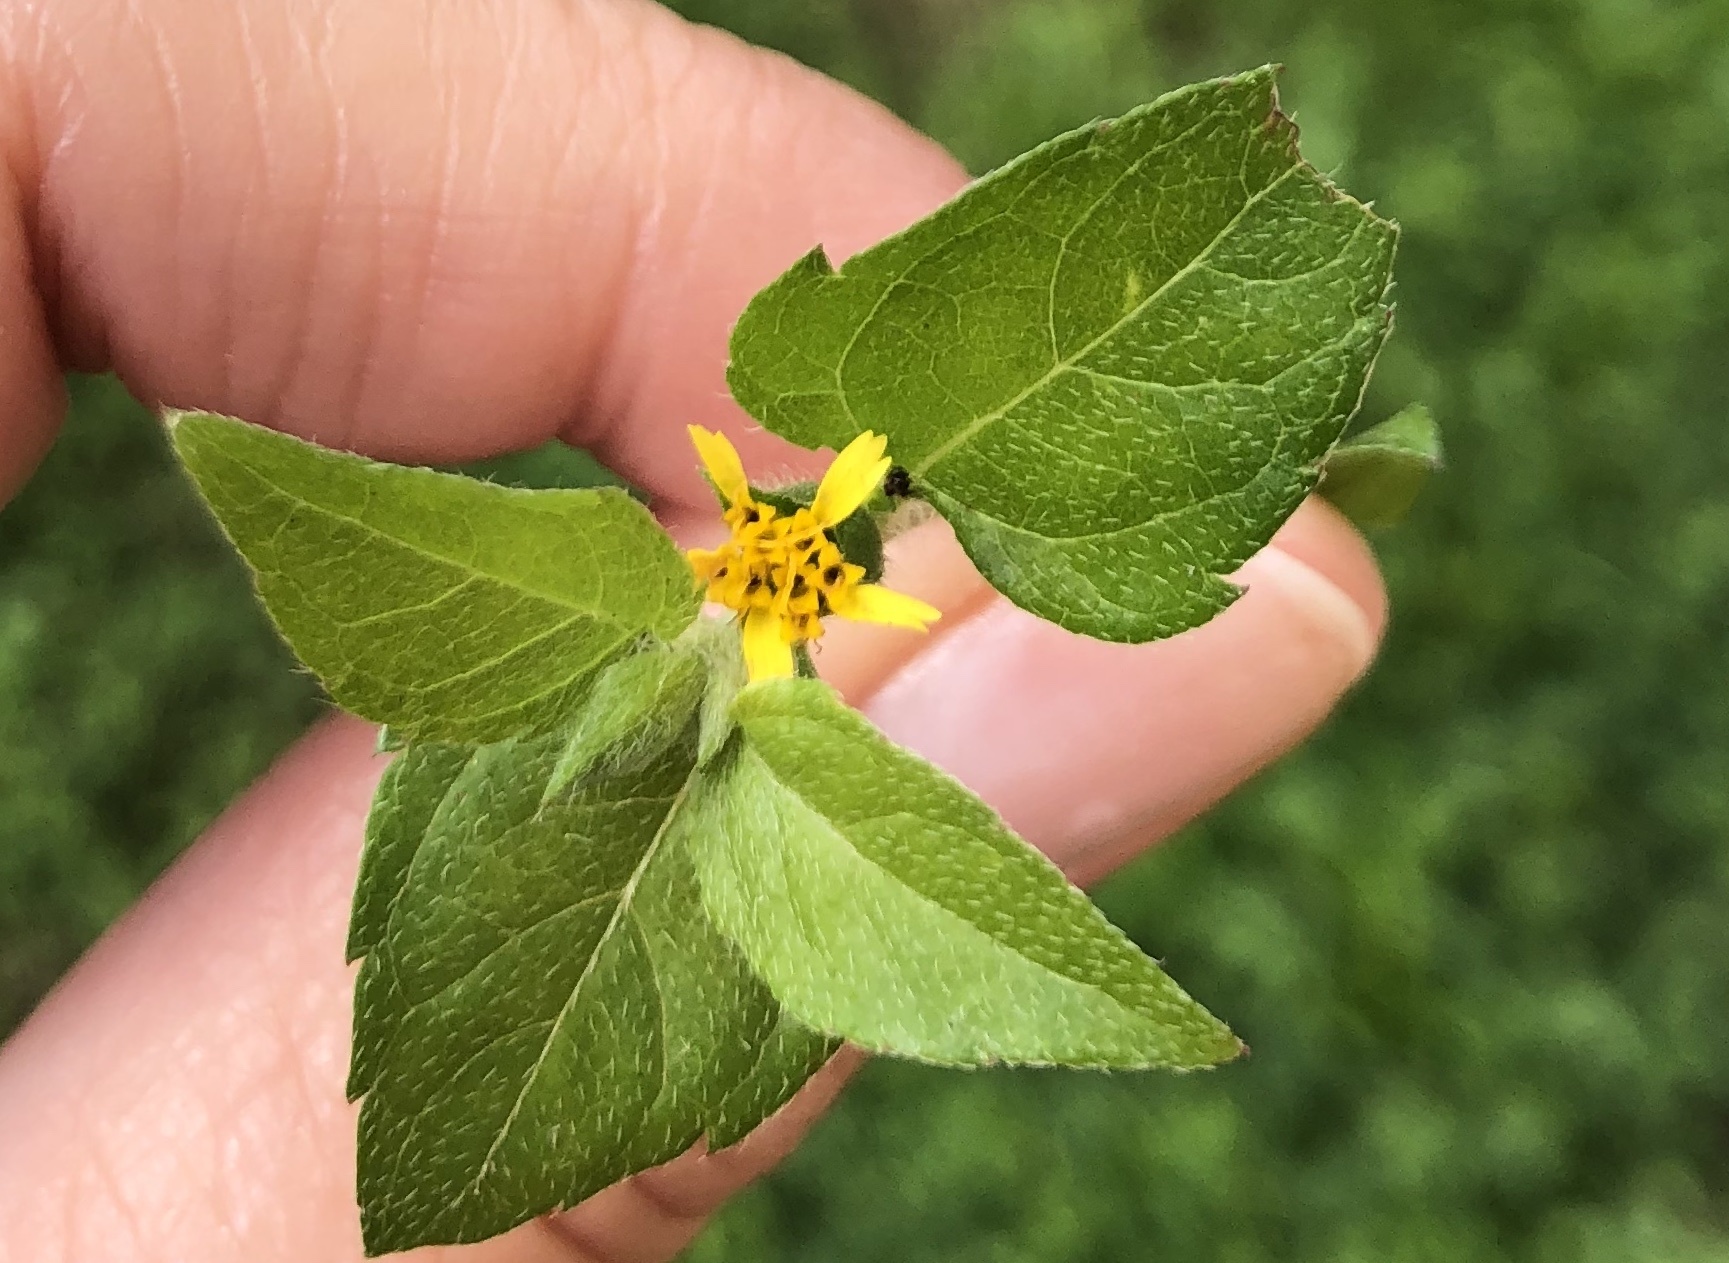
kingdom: Plantae
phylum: Tracheophyta
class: Magnoliopsida
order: Asterales
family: Asteraceae
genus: Calyptocarpus
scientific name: Calyptocarpus vialis
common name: Straggler daisy
